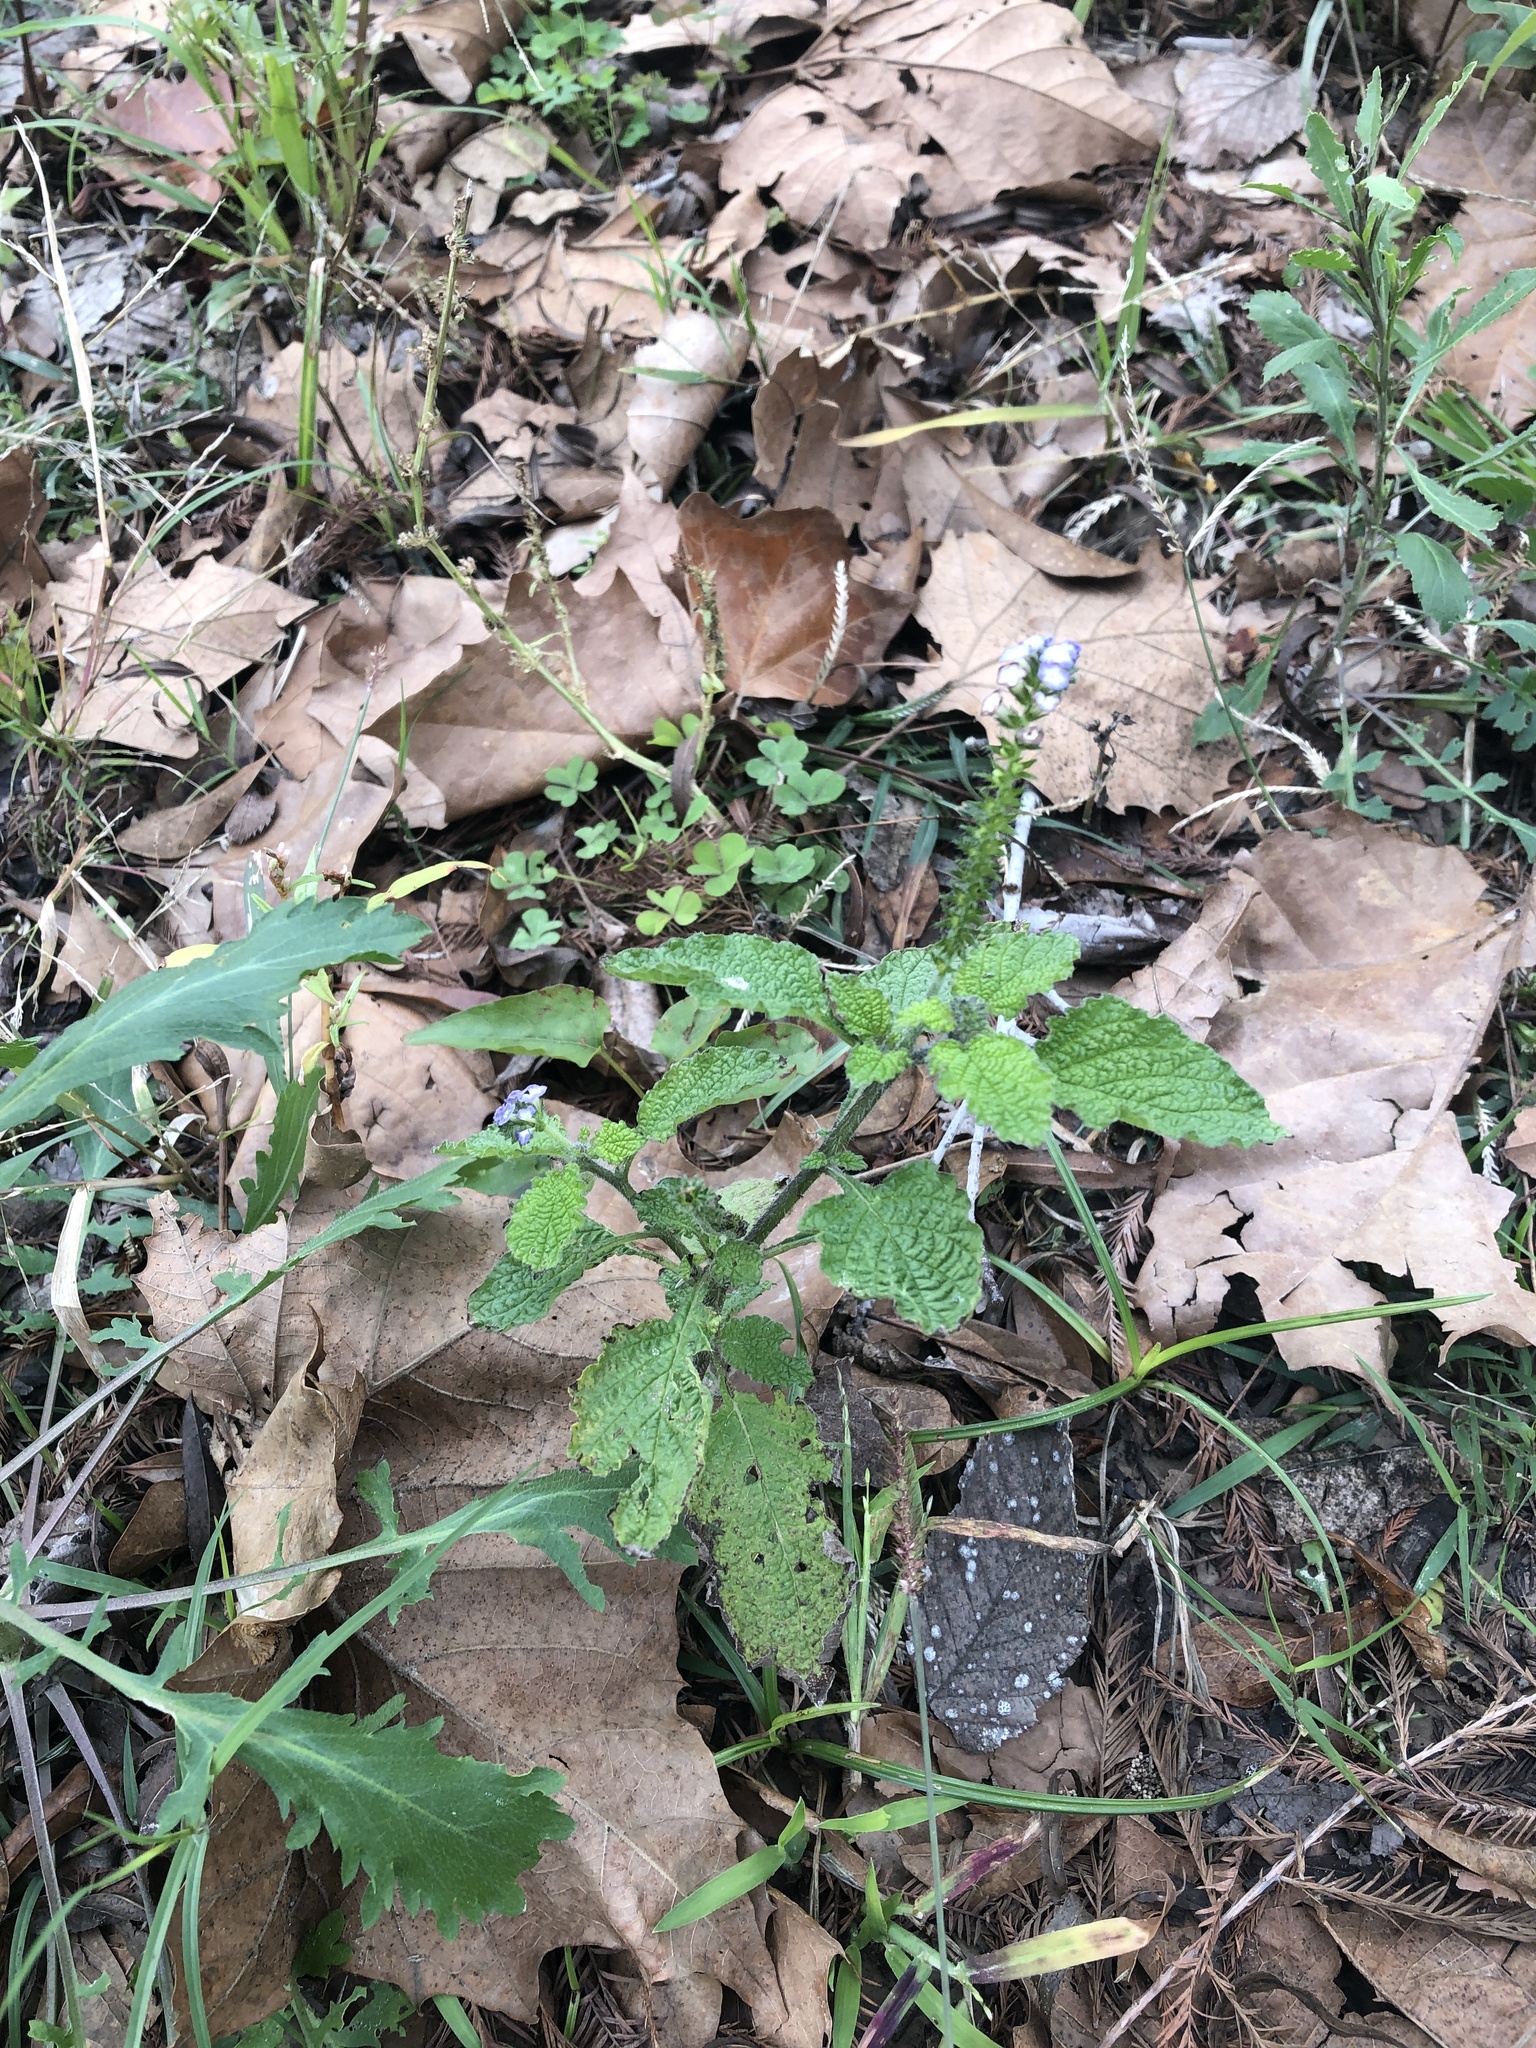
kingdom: Plantae
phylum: Tracheophyta
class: Magnoliopsida
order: Boraginales
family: Heliotropiaceae
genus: Heliotropium
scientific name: Heliotropium indicum
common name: Indian heliotrope
